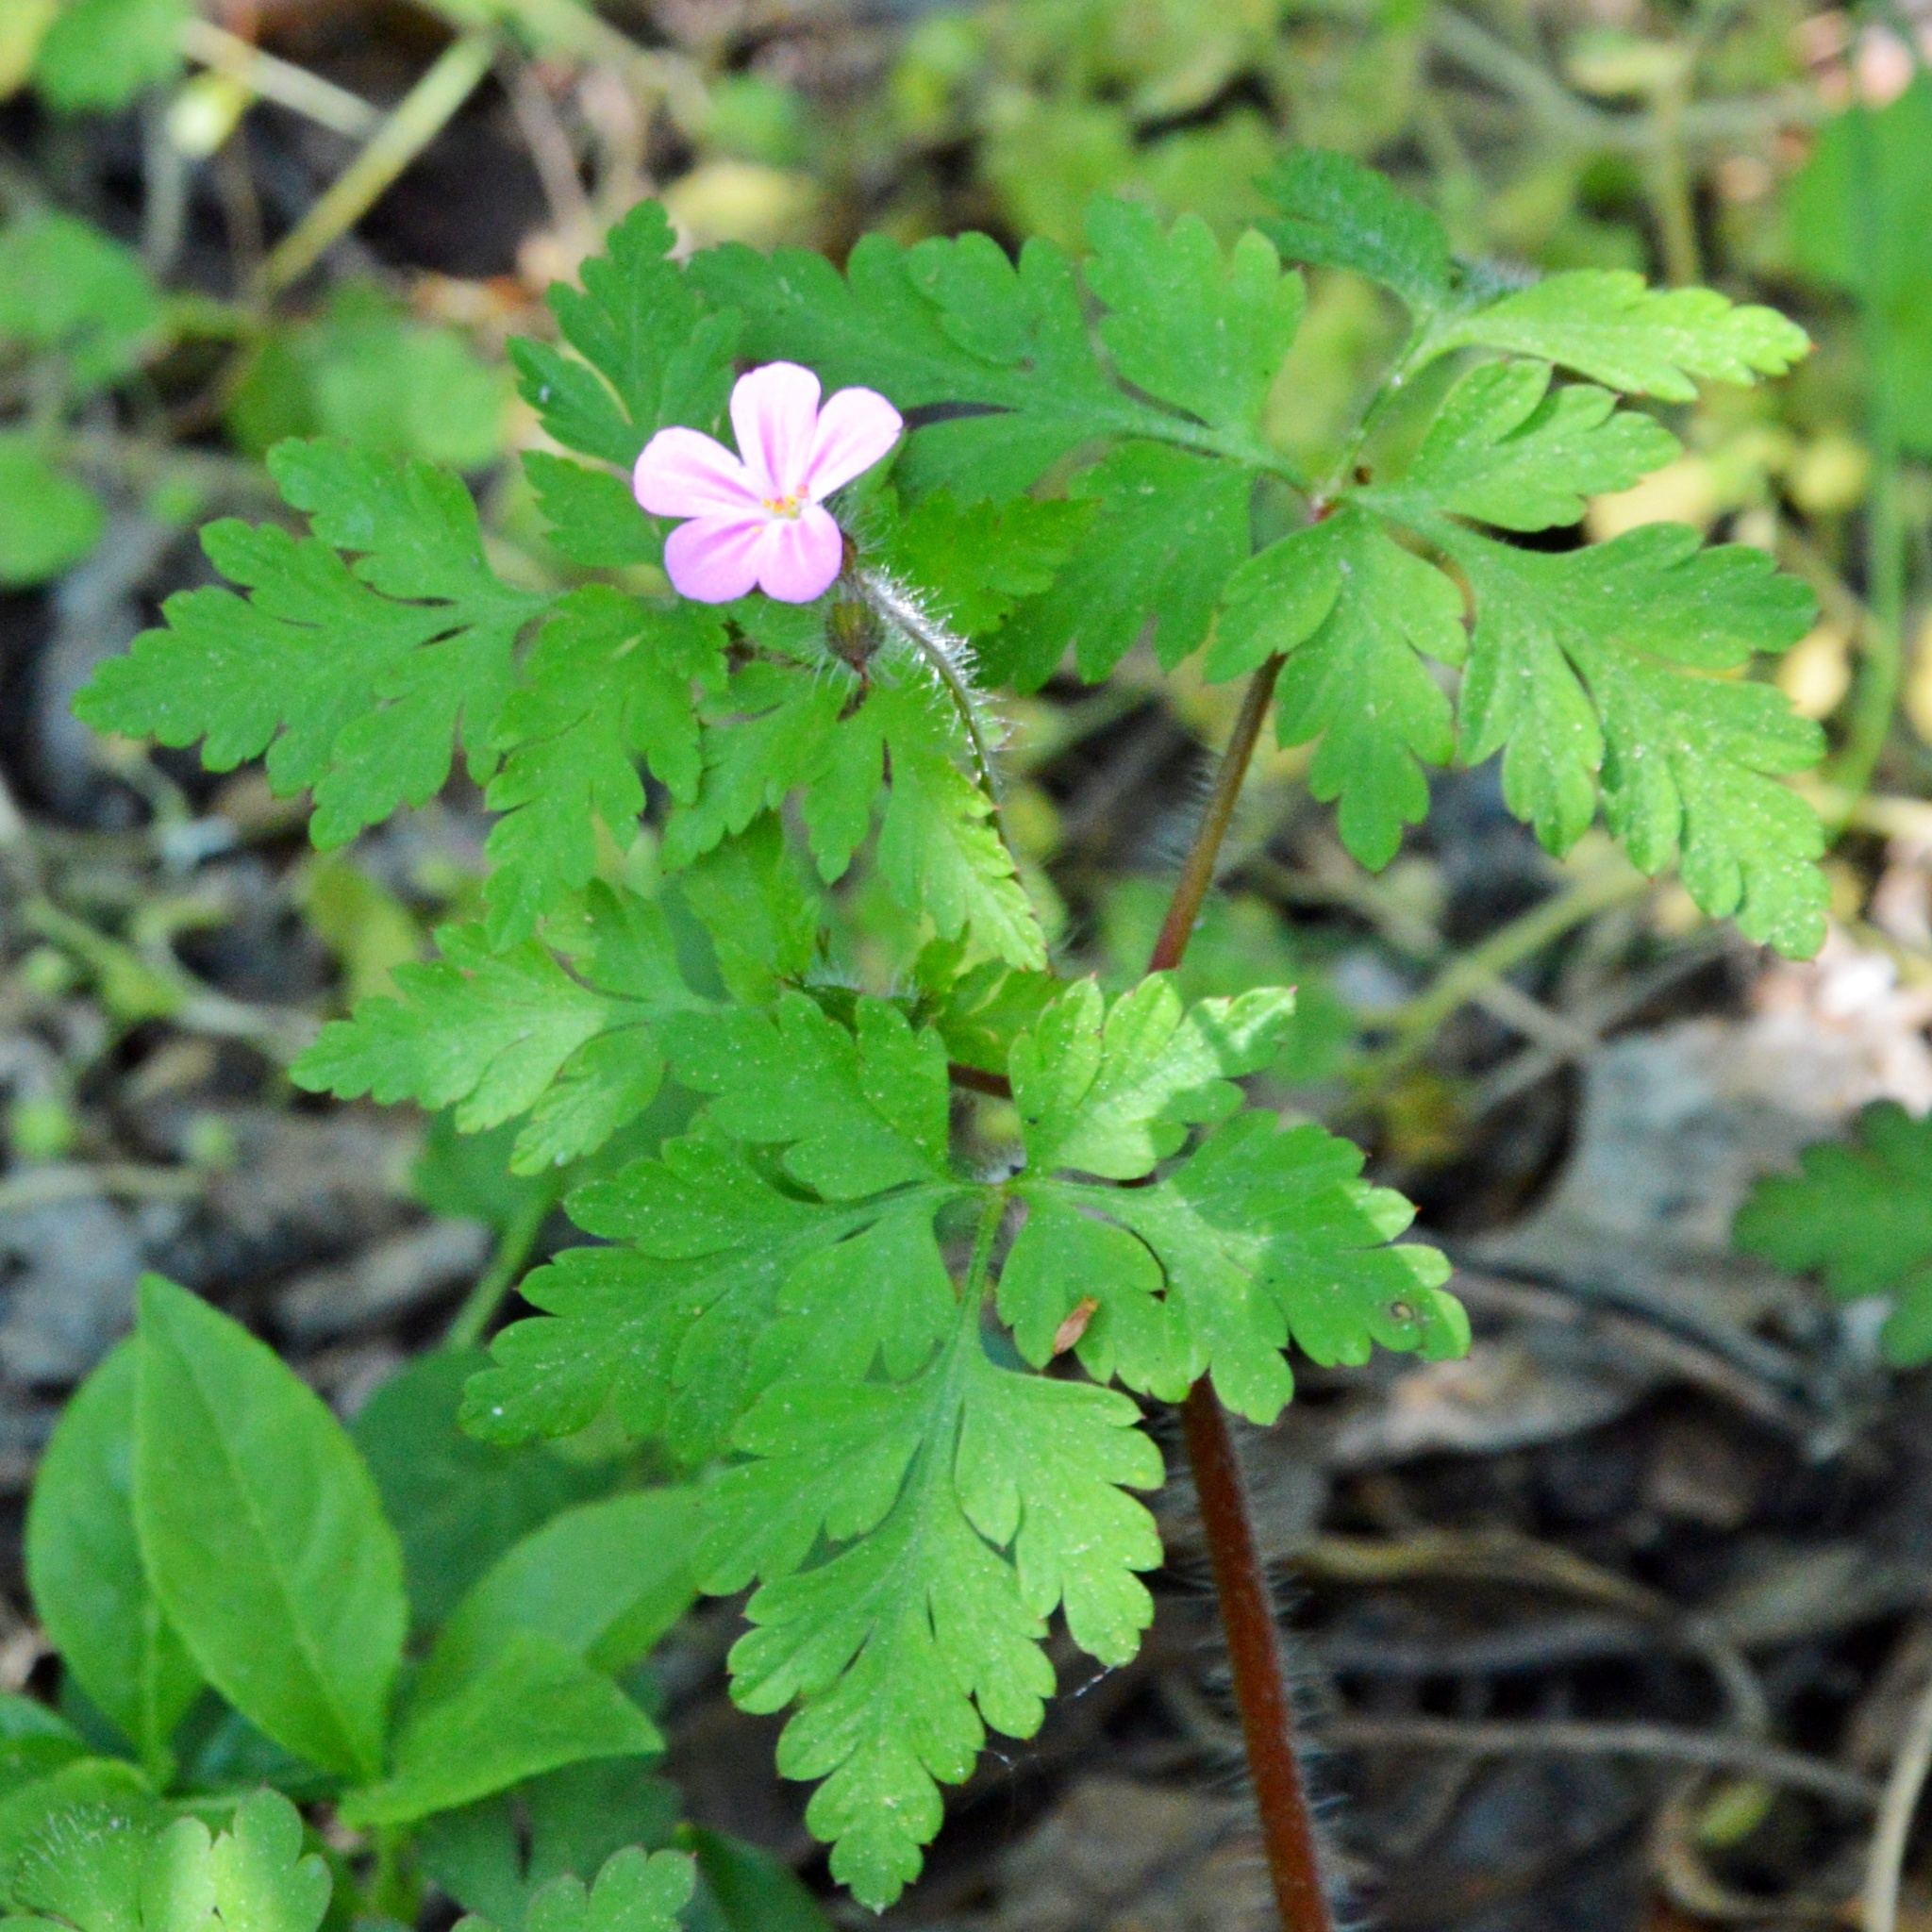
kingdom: Plantae
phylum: Tracheophyta
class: Magnoliopsida
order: Geraniales
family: Geraniaceae
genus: Geranium
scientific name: Geranium robertianum
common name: Herb-robert
